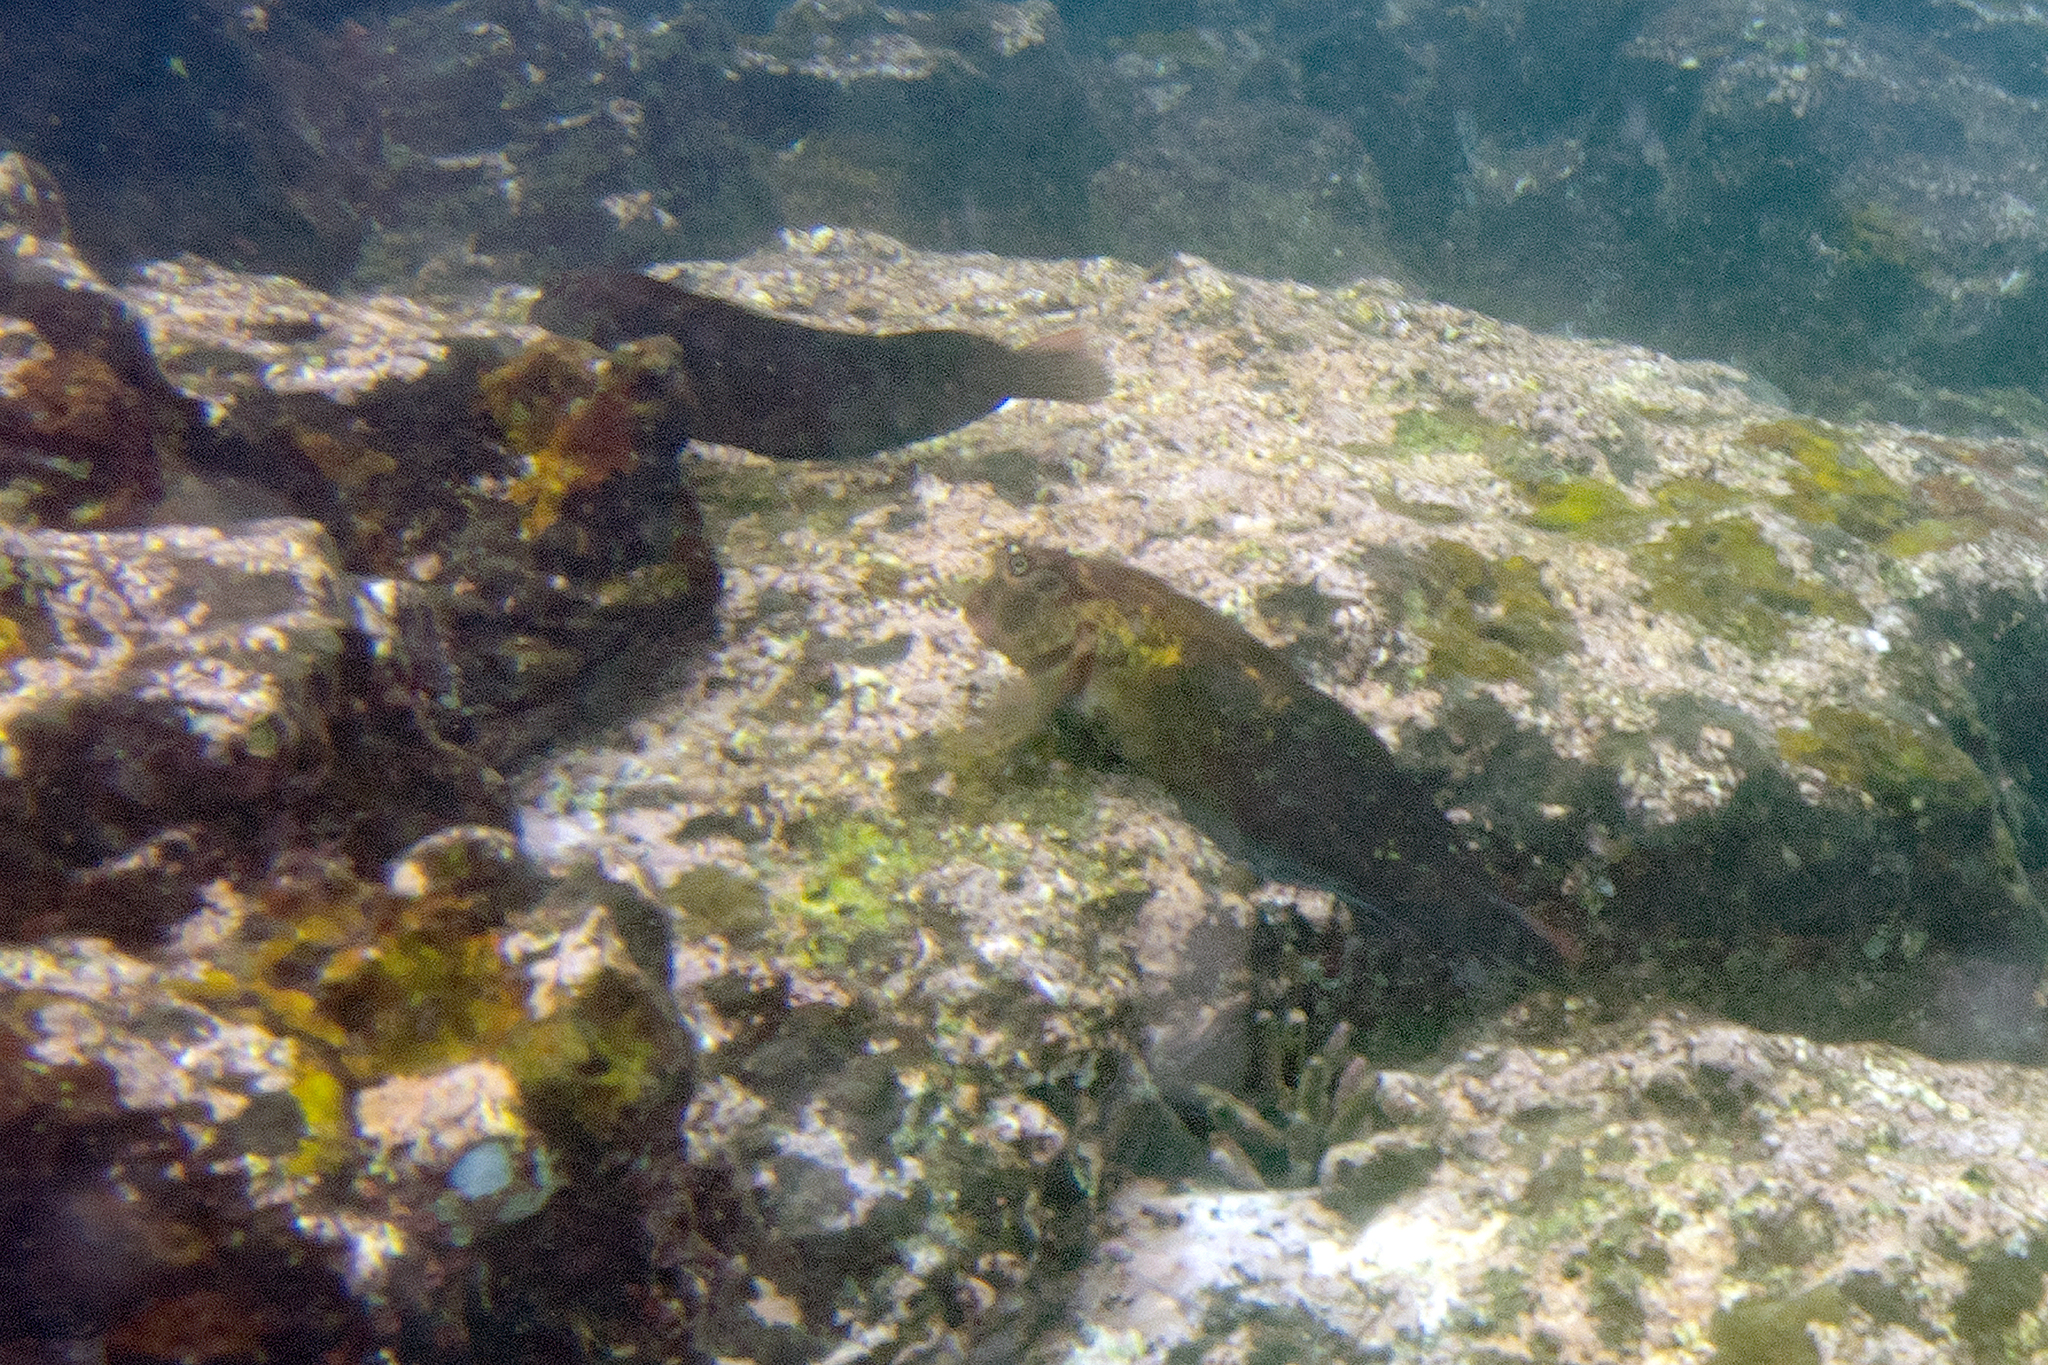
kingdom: Animalia
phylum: Chordata
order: Perciformes
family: Blenniidae
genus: Ophioblennius
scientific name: Ophioblennius steindachneri
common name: Panamic fanged blenny
